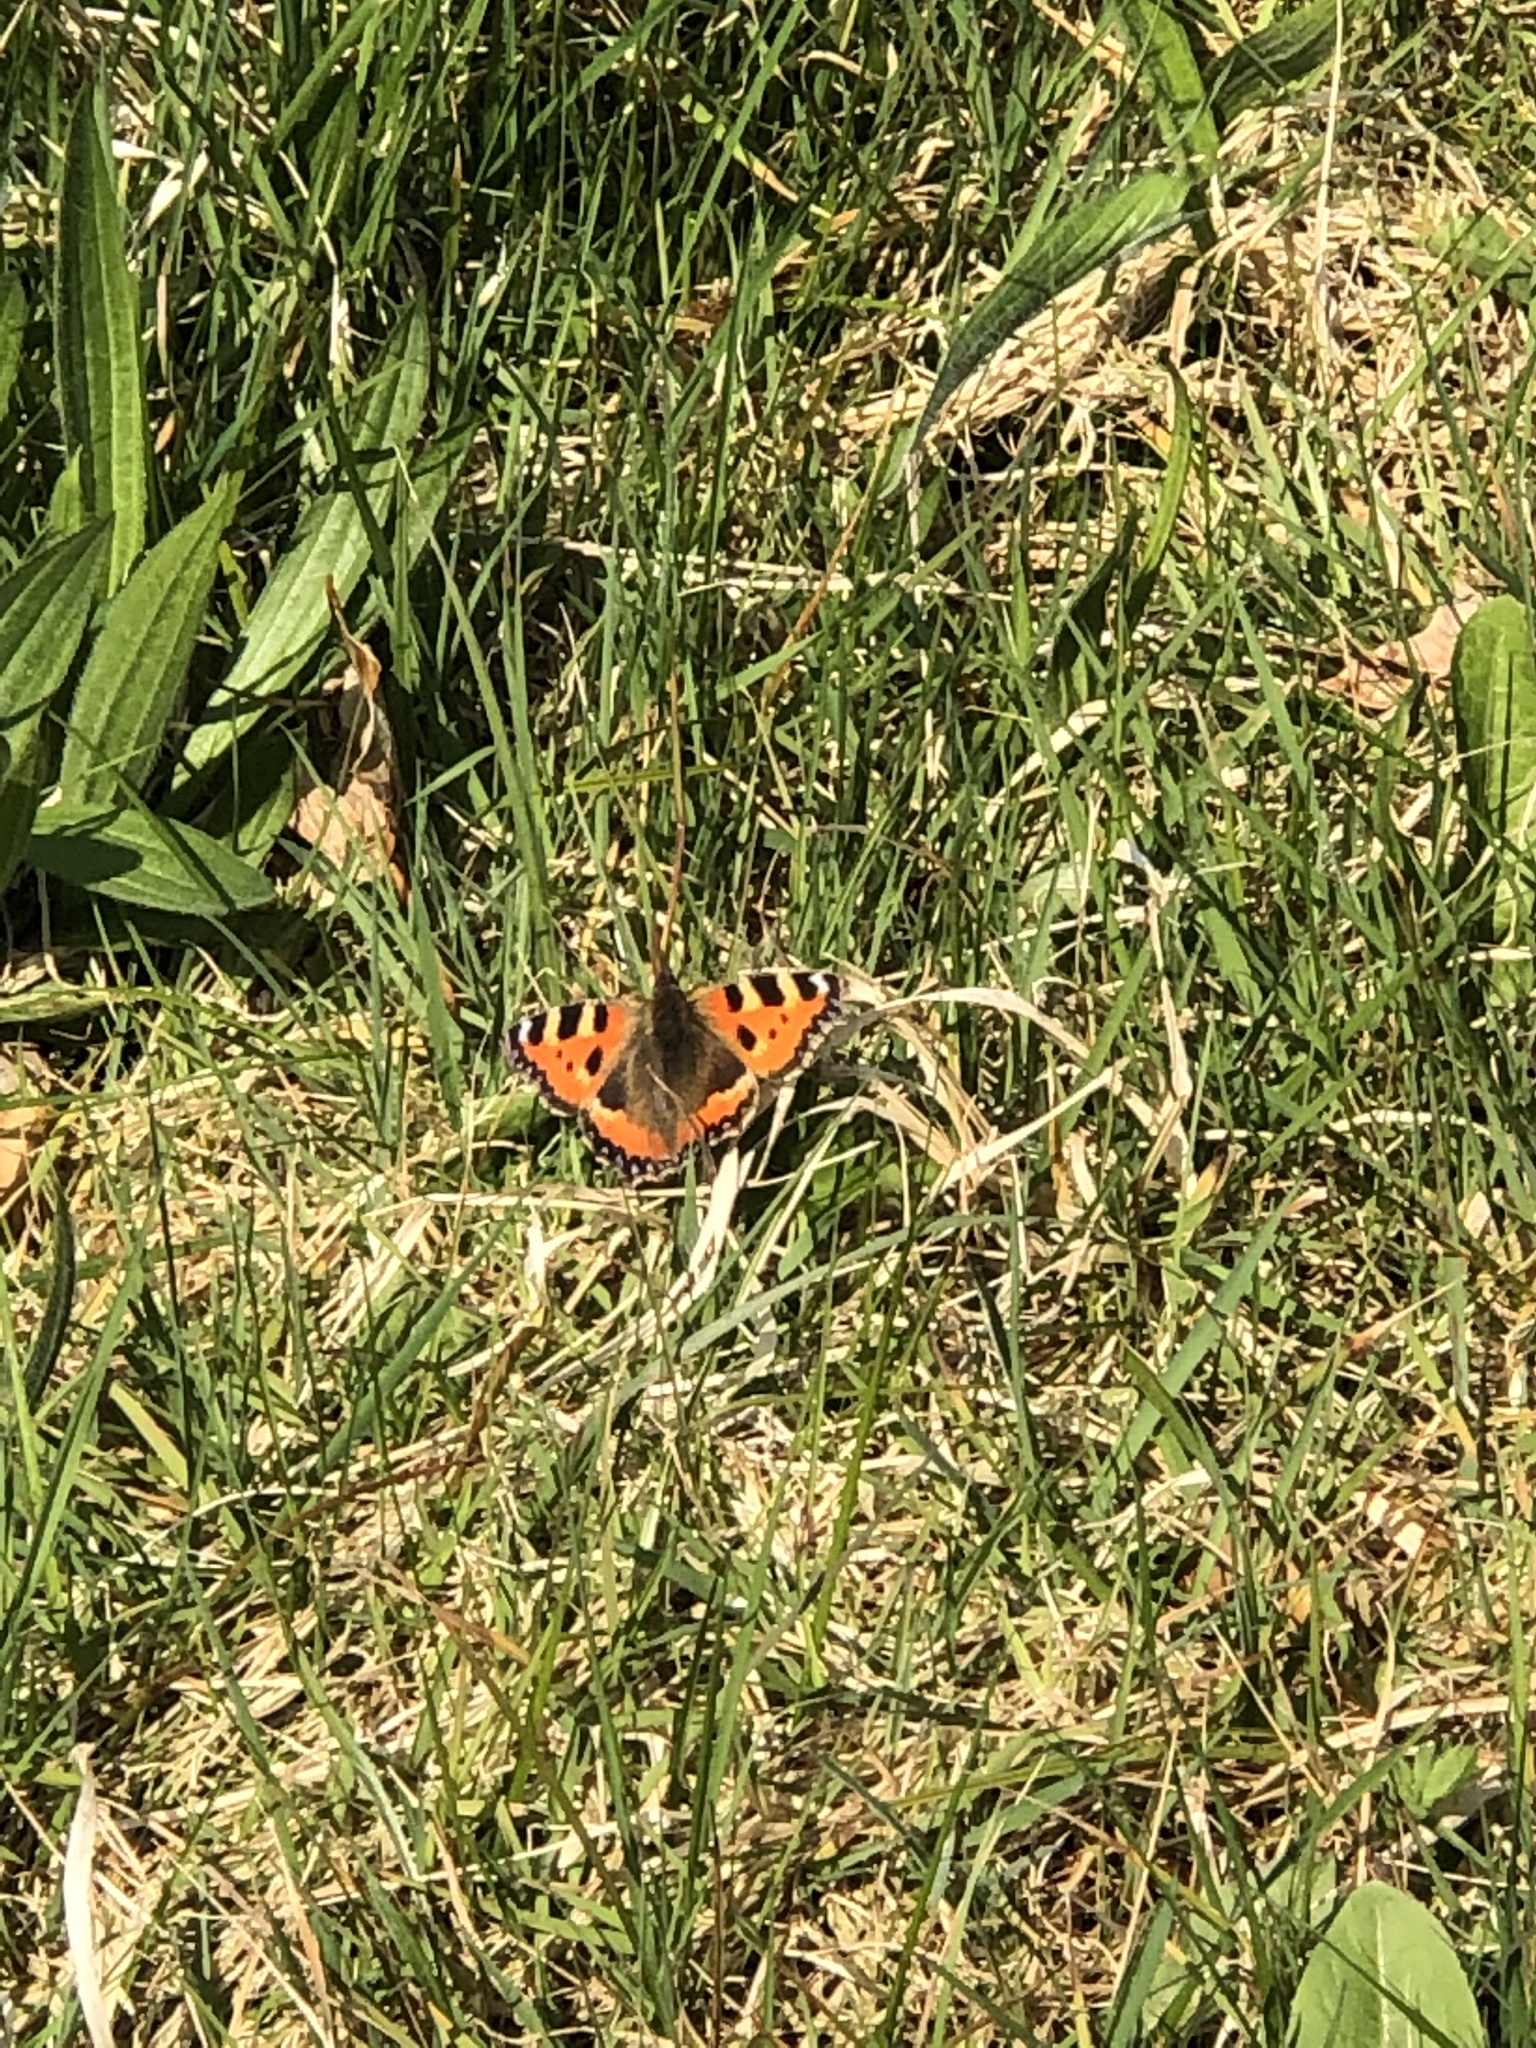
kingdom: Animalia
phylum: Arthropoda
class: Insecta
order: Lepidoptera
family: Nymphalidae
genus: Aglais
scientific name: Aglais urticae
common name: Small tortoiseshell
